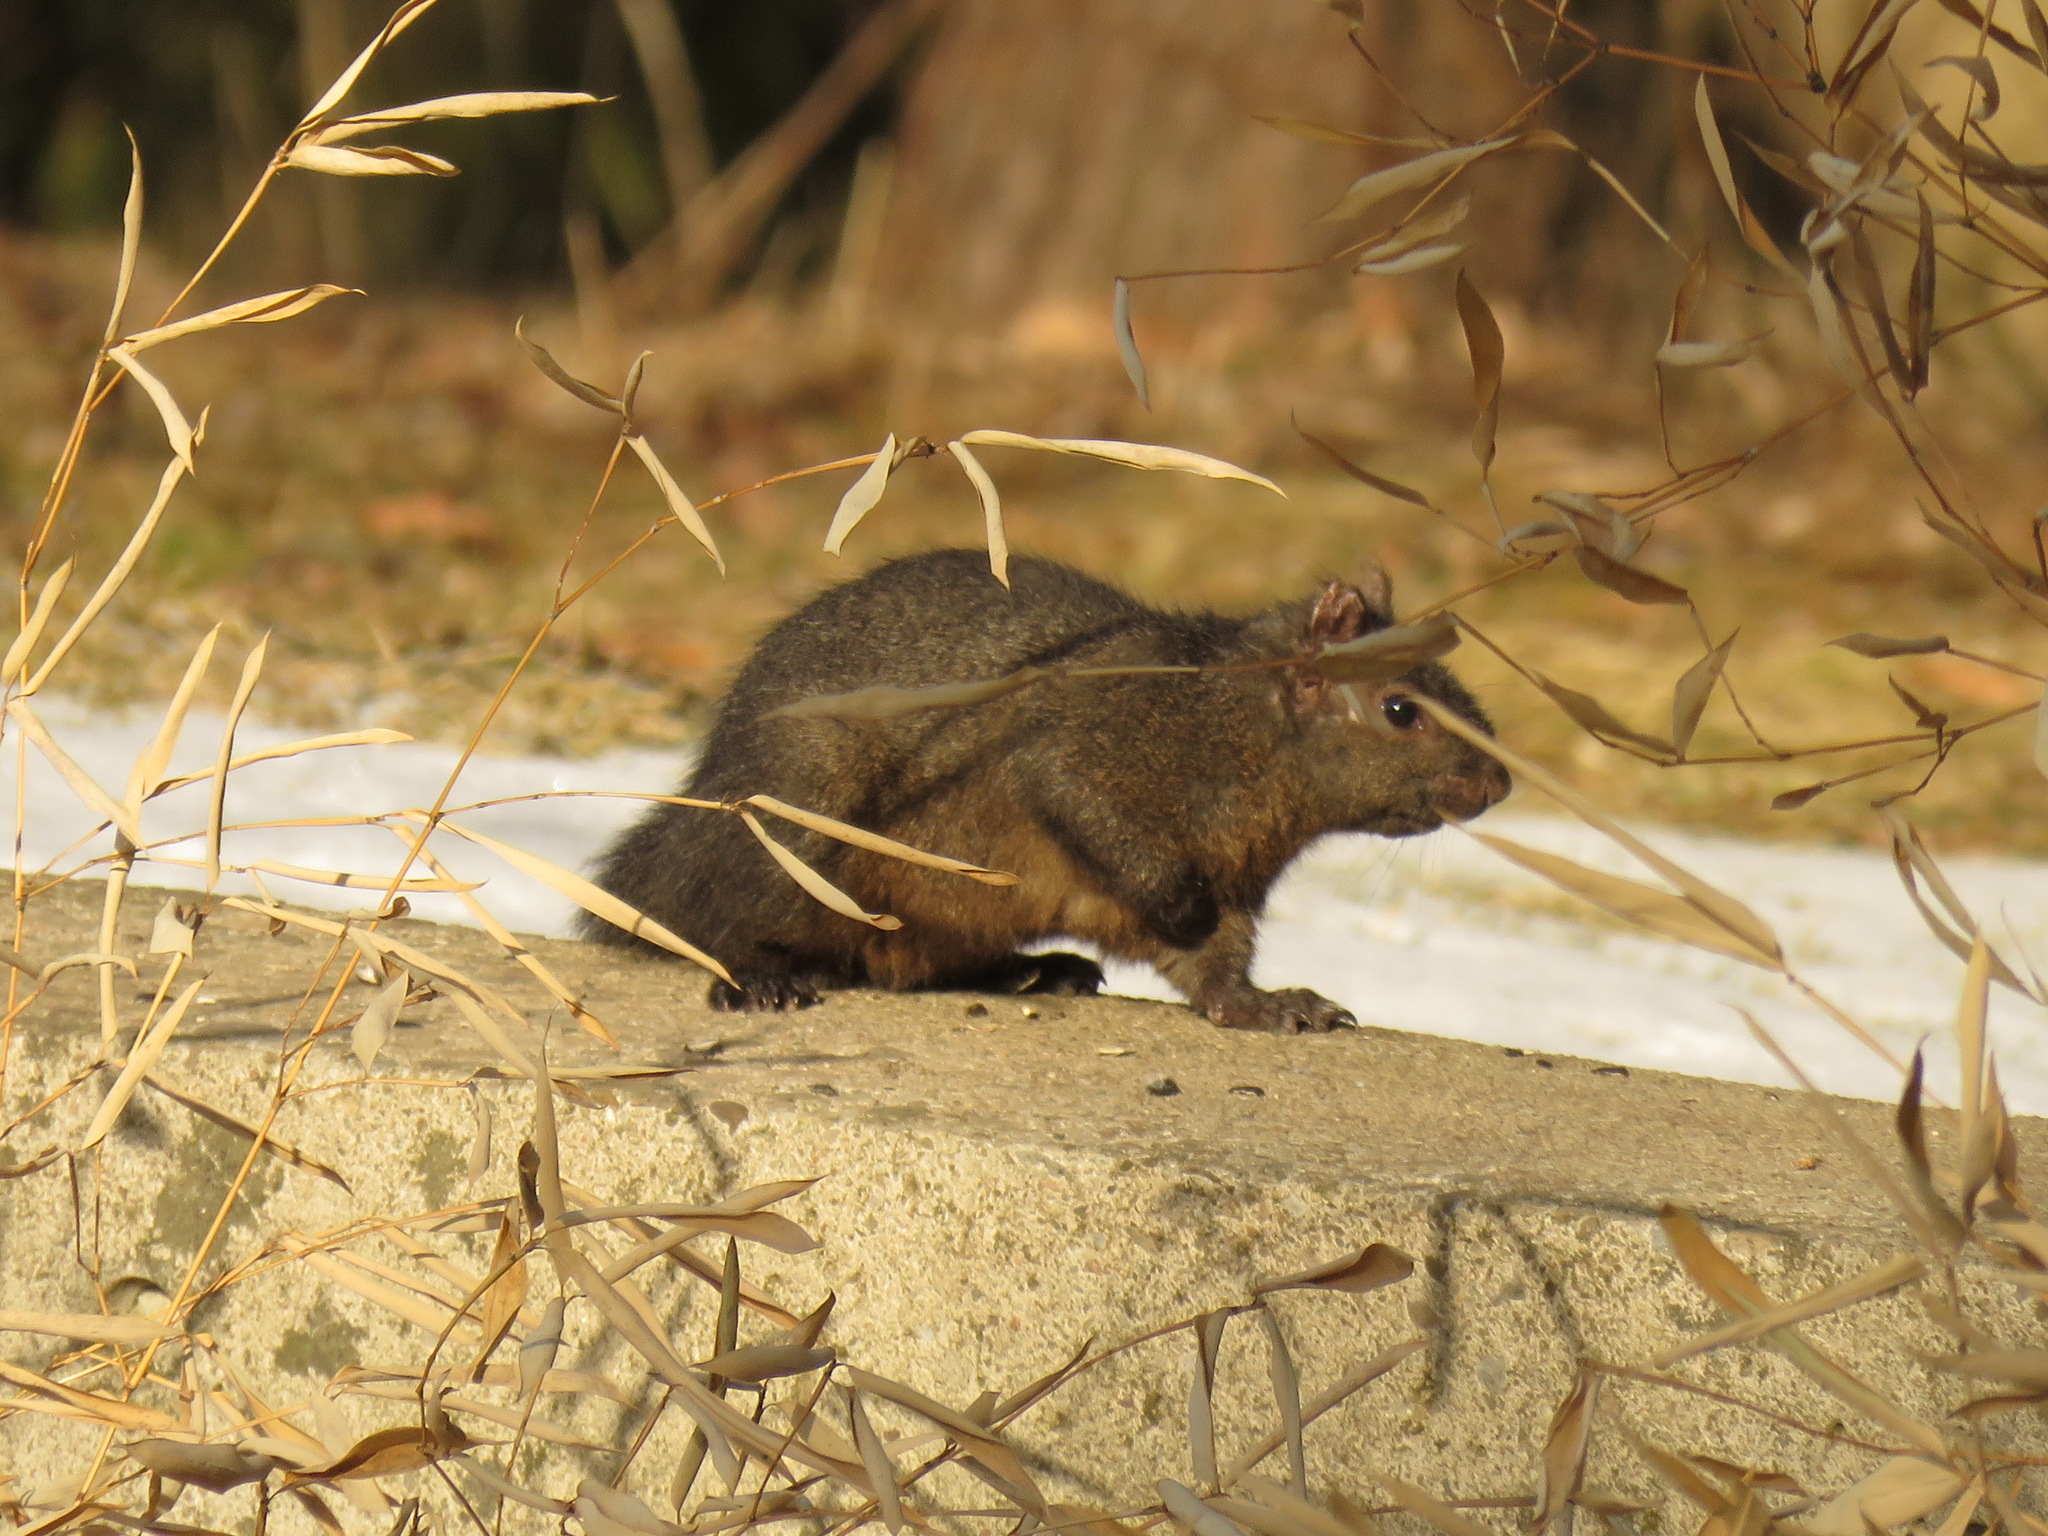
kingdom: Animalia
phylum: Chordata
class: Mammalia
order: Rodentia
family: Sciuridae
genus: Sciurus
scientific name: Sciurus carolinensis
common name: Eastern gray squirrel
